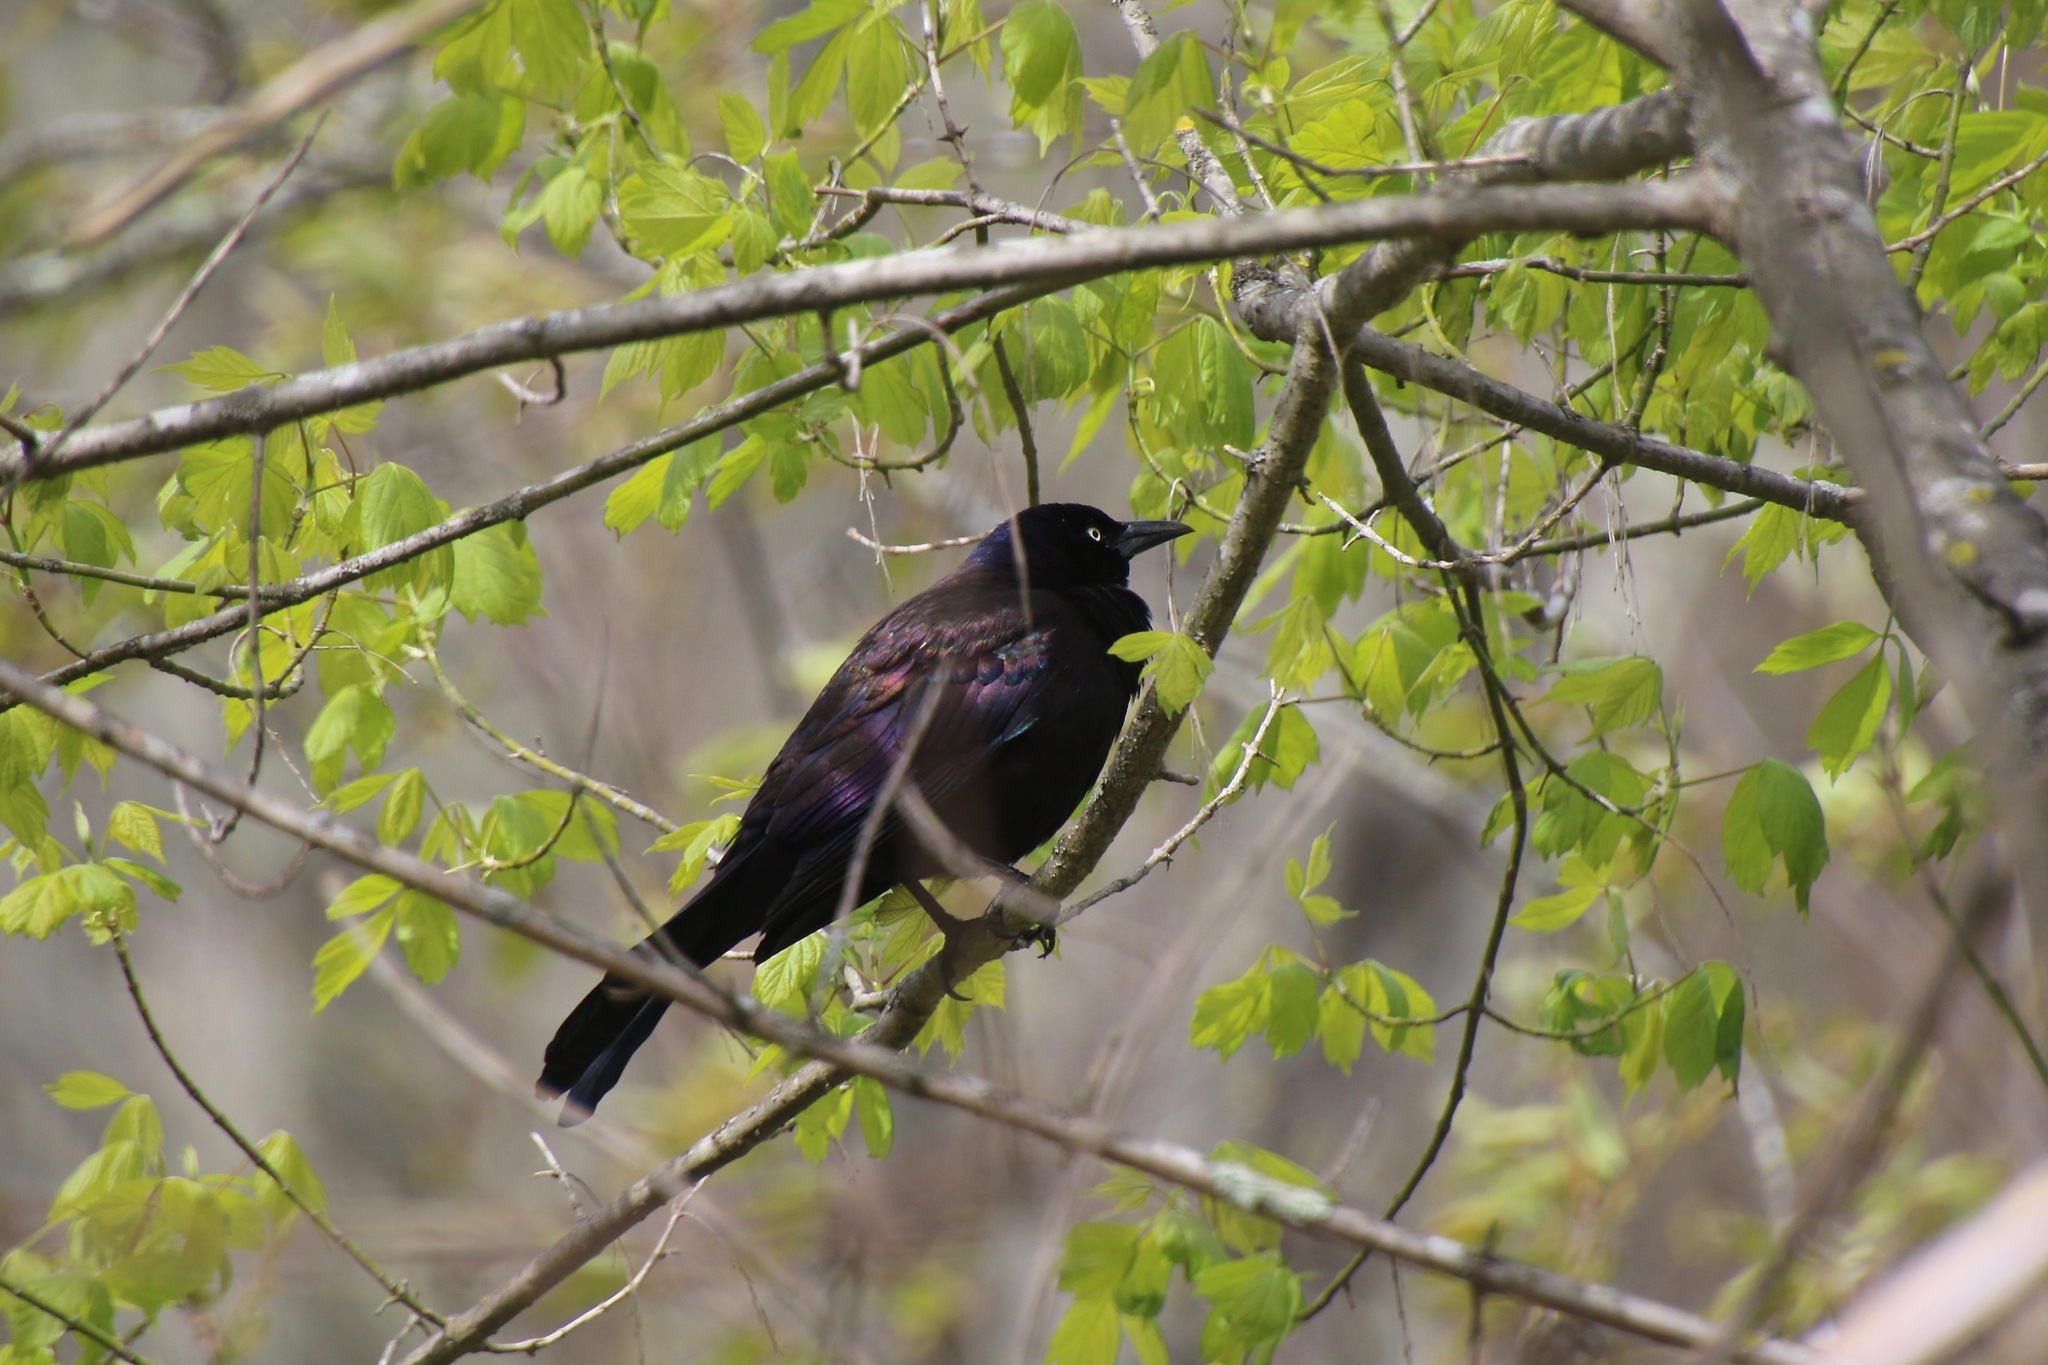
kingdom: Animalia
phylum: Chordata
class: Aves
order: Passeriformes
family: Icteridae
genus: Quiscalus
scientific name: Quiscalus quiscula
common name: Common grackle
